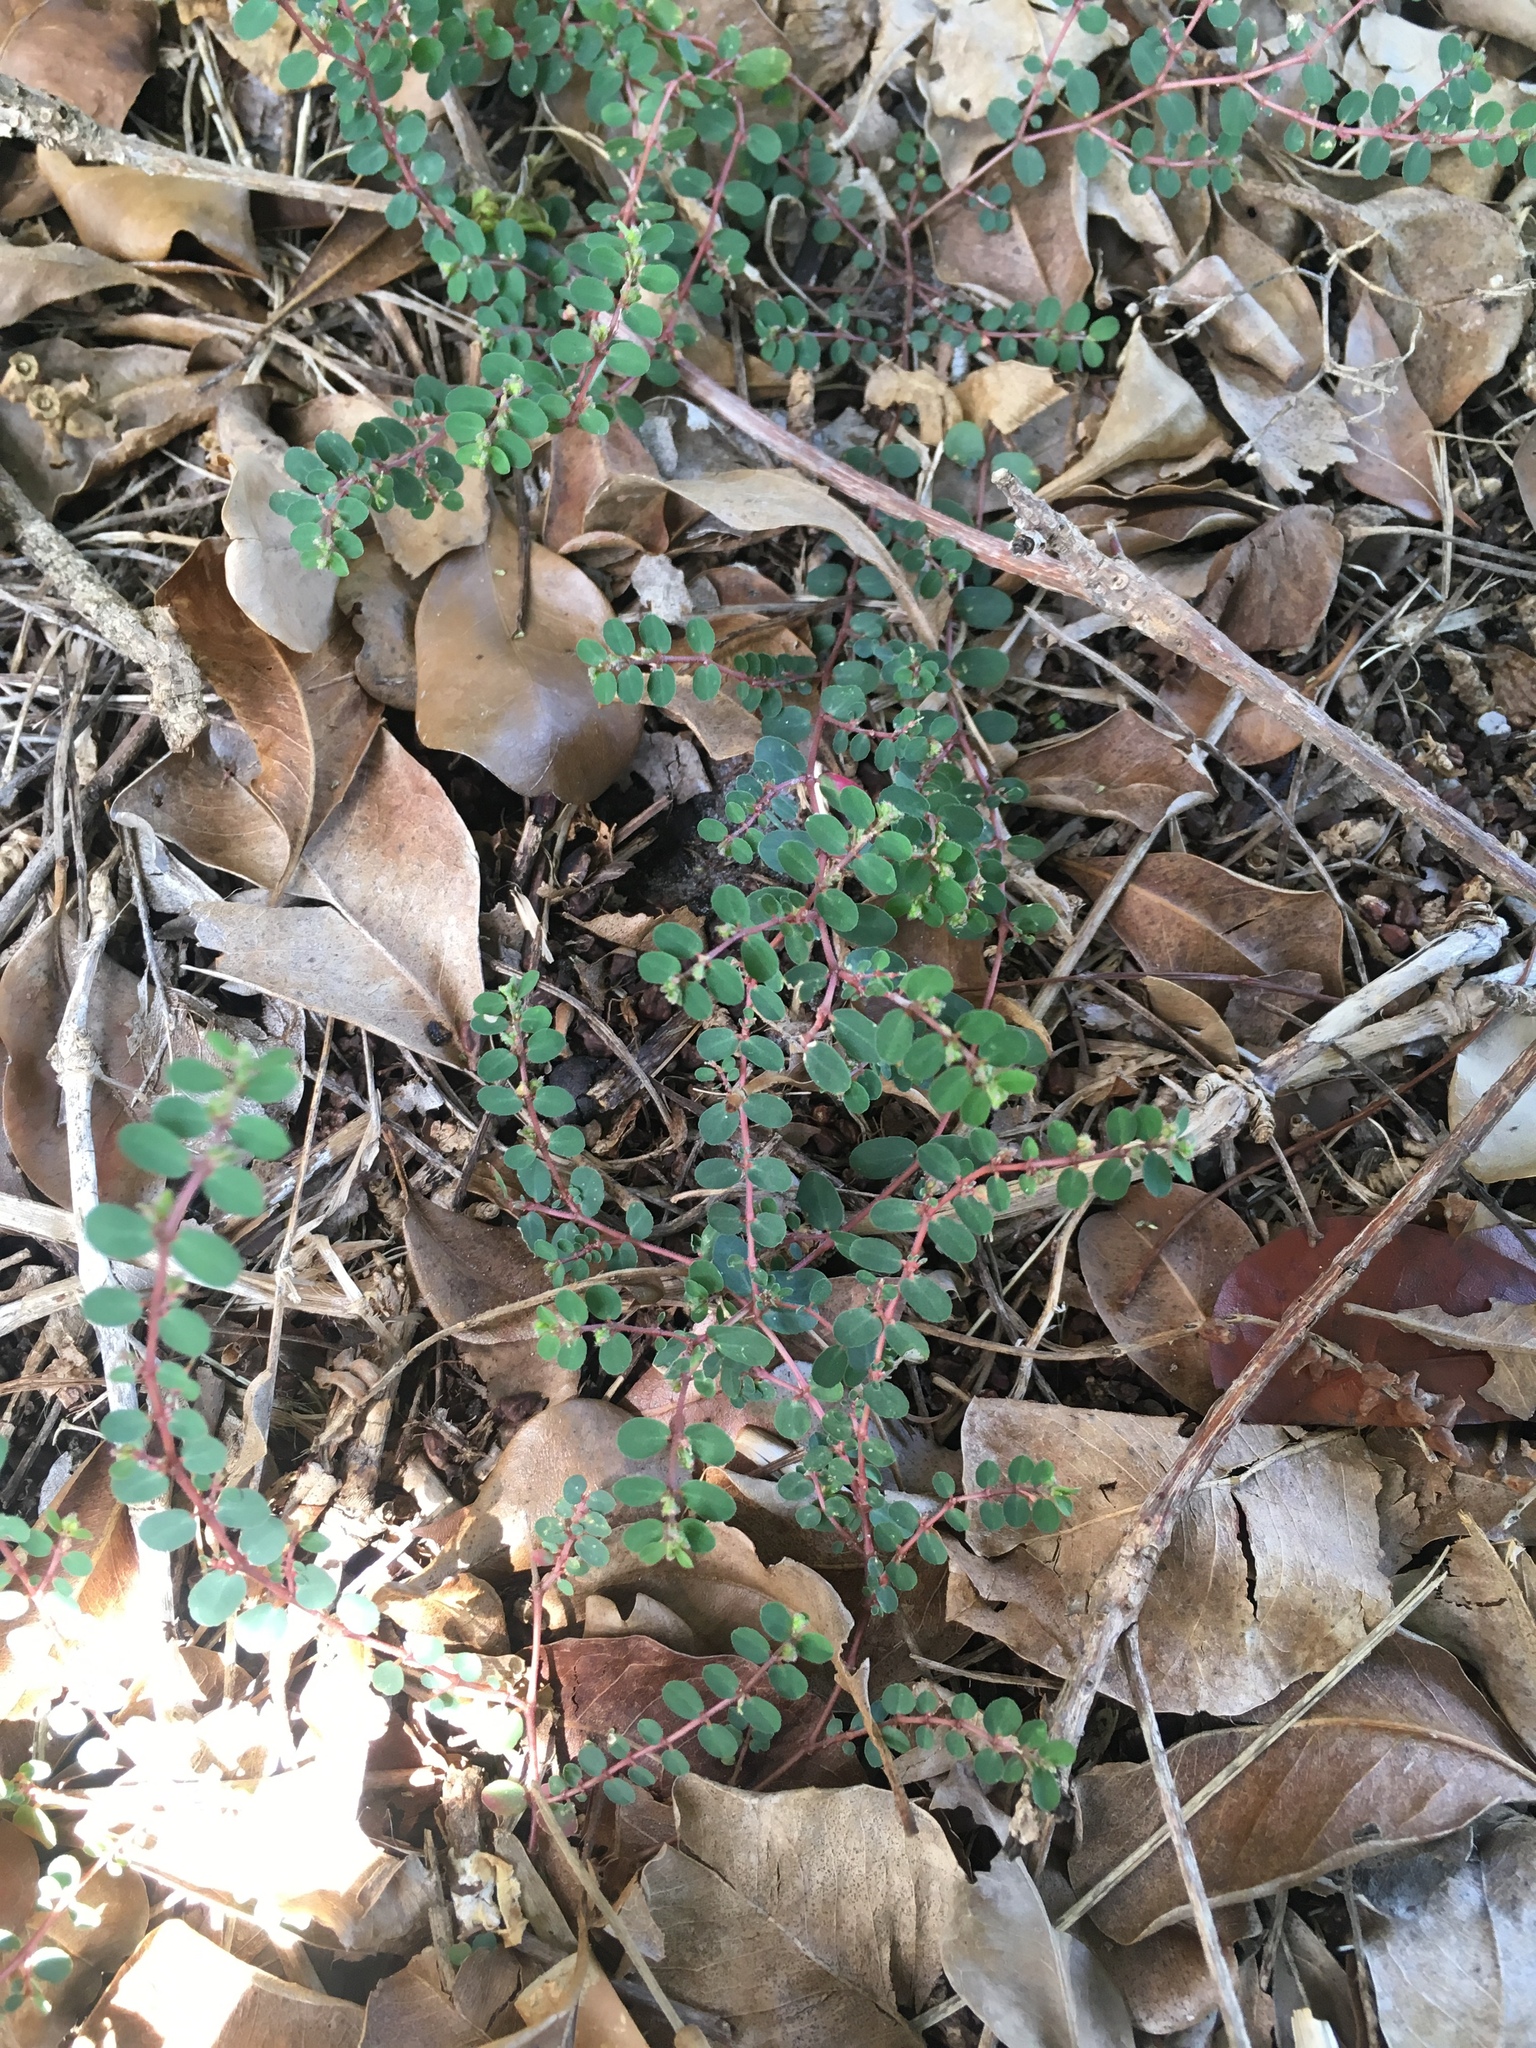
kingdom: Plantae
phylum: Tracheophyta
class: Magnoliopsida
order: Malpighiales
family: Euphorbiaceae
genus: Euphorbia
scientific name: Euphorbia prostrata
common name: Prostrate sandmat
